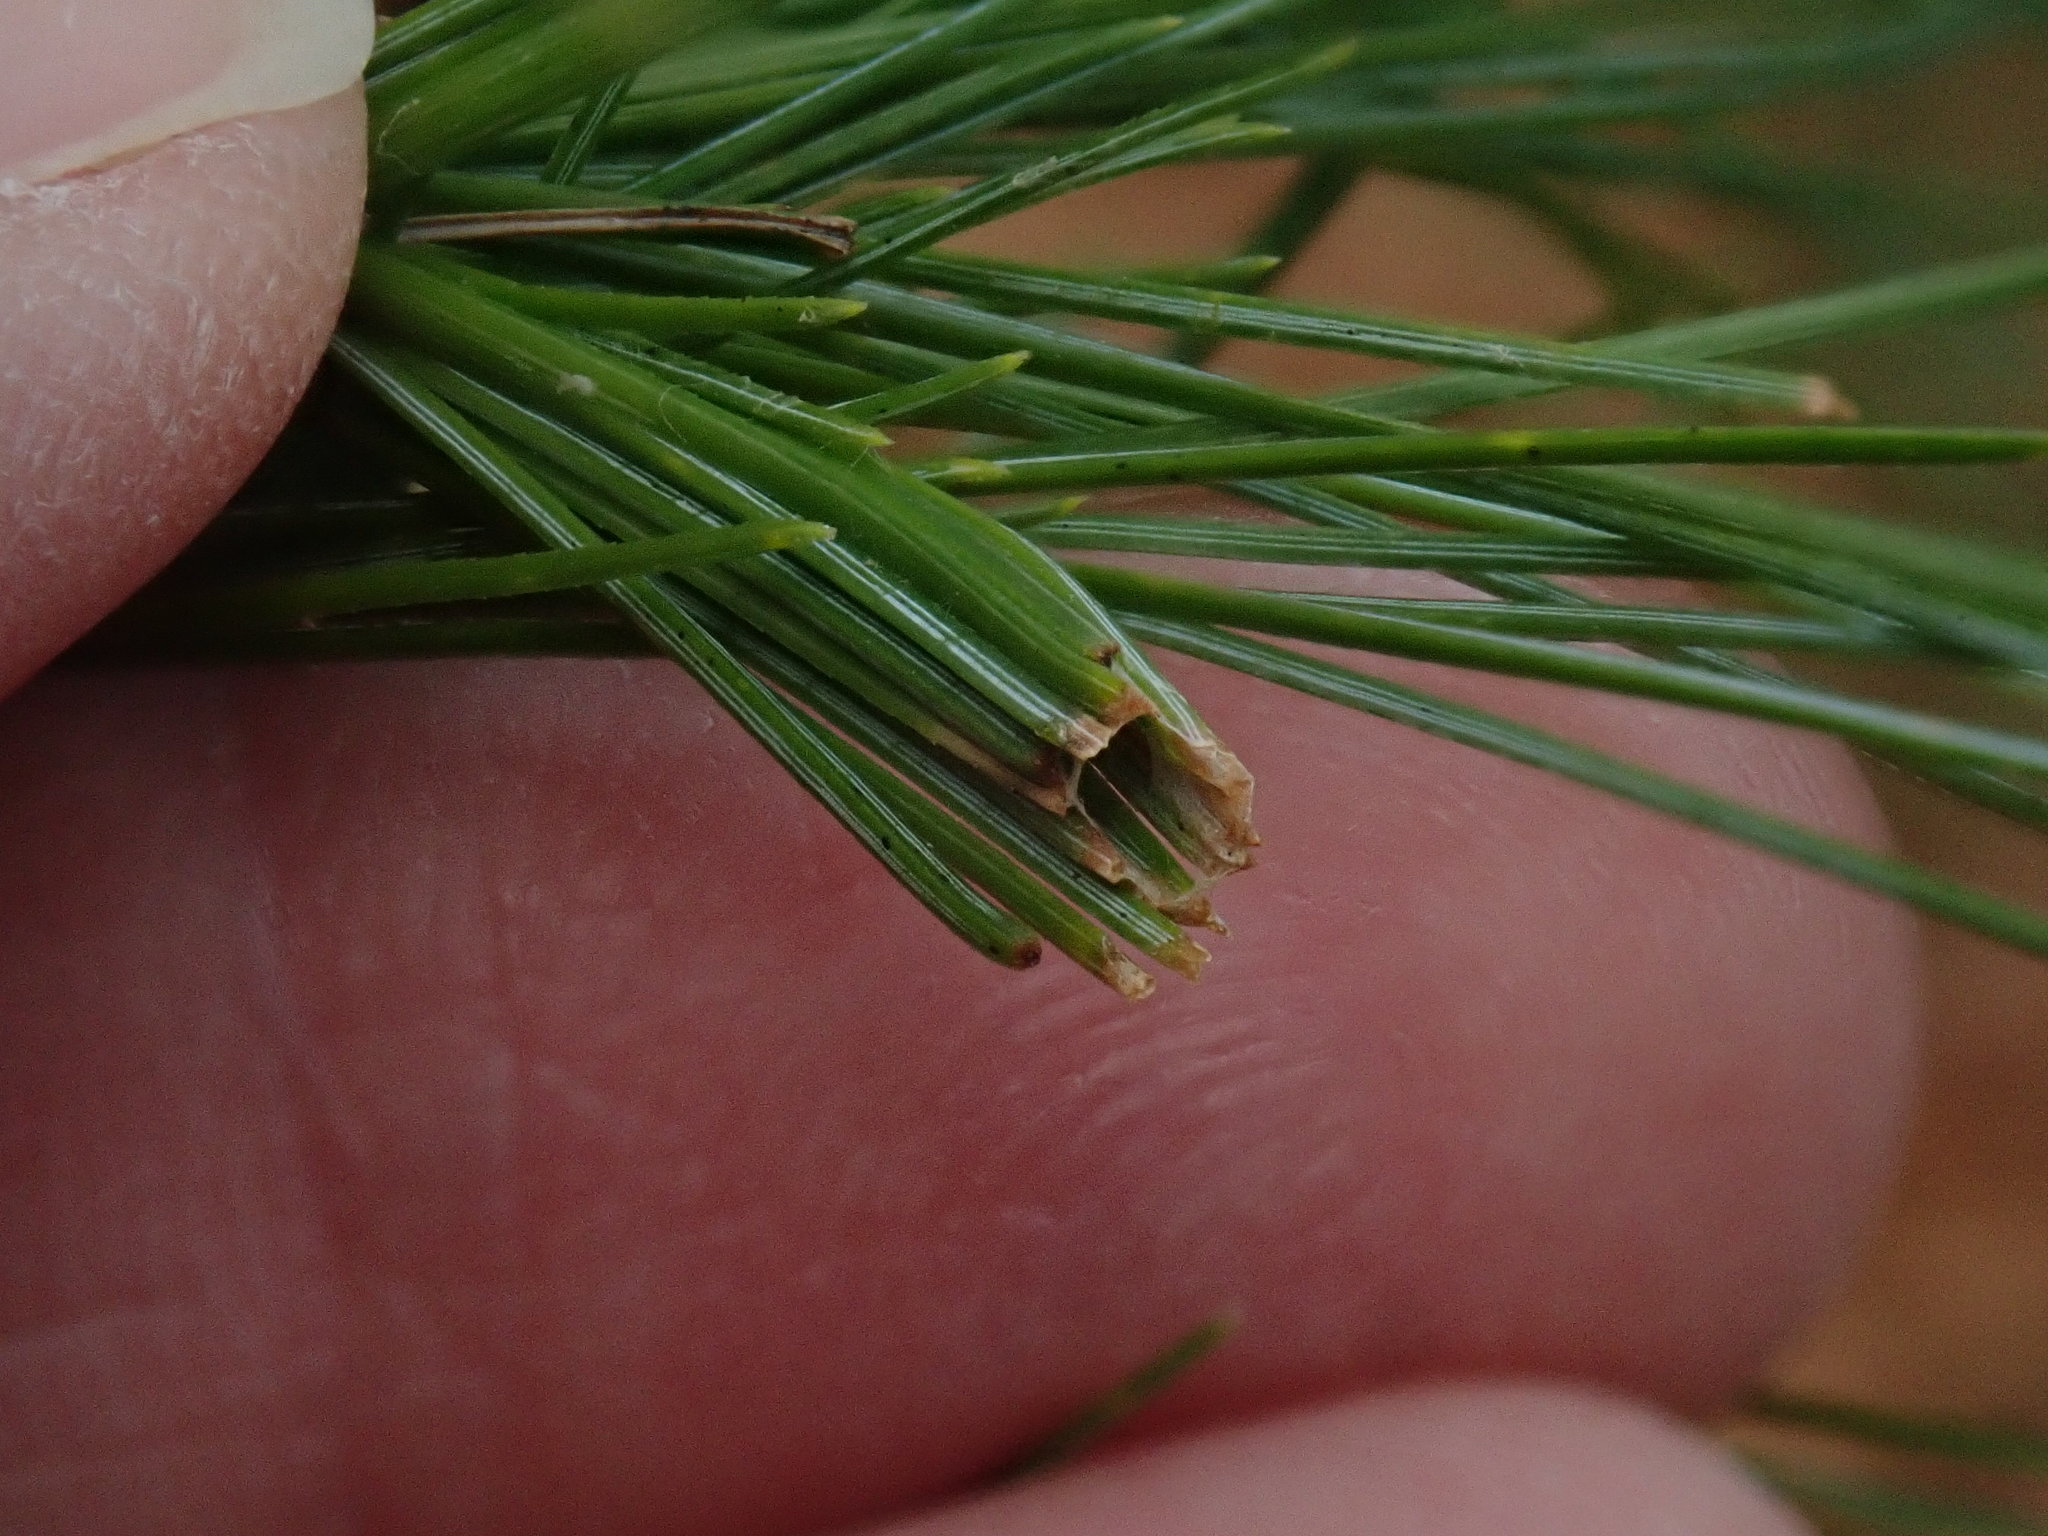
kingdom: Animalia
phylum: Arthropoda
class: Insecta
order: Lepidoptera
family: Tortricidae
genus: Argyrotaenia
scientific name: Argyrotaenia pinatubana
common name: Pine tube moth
